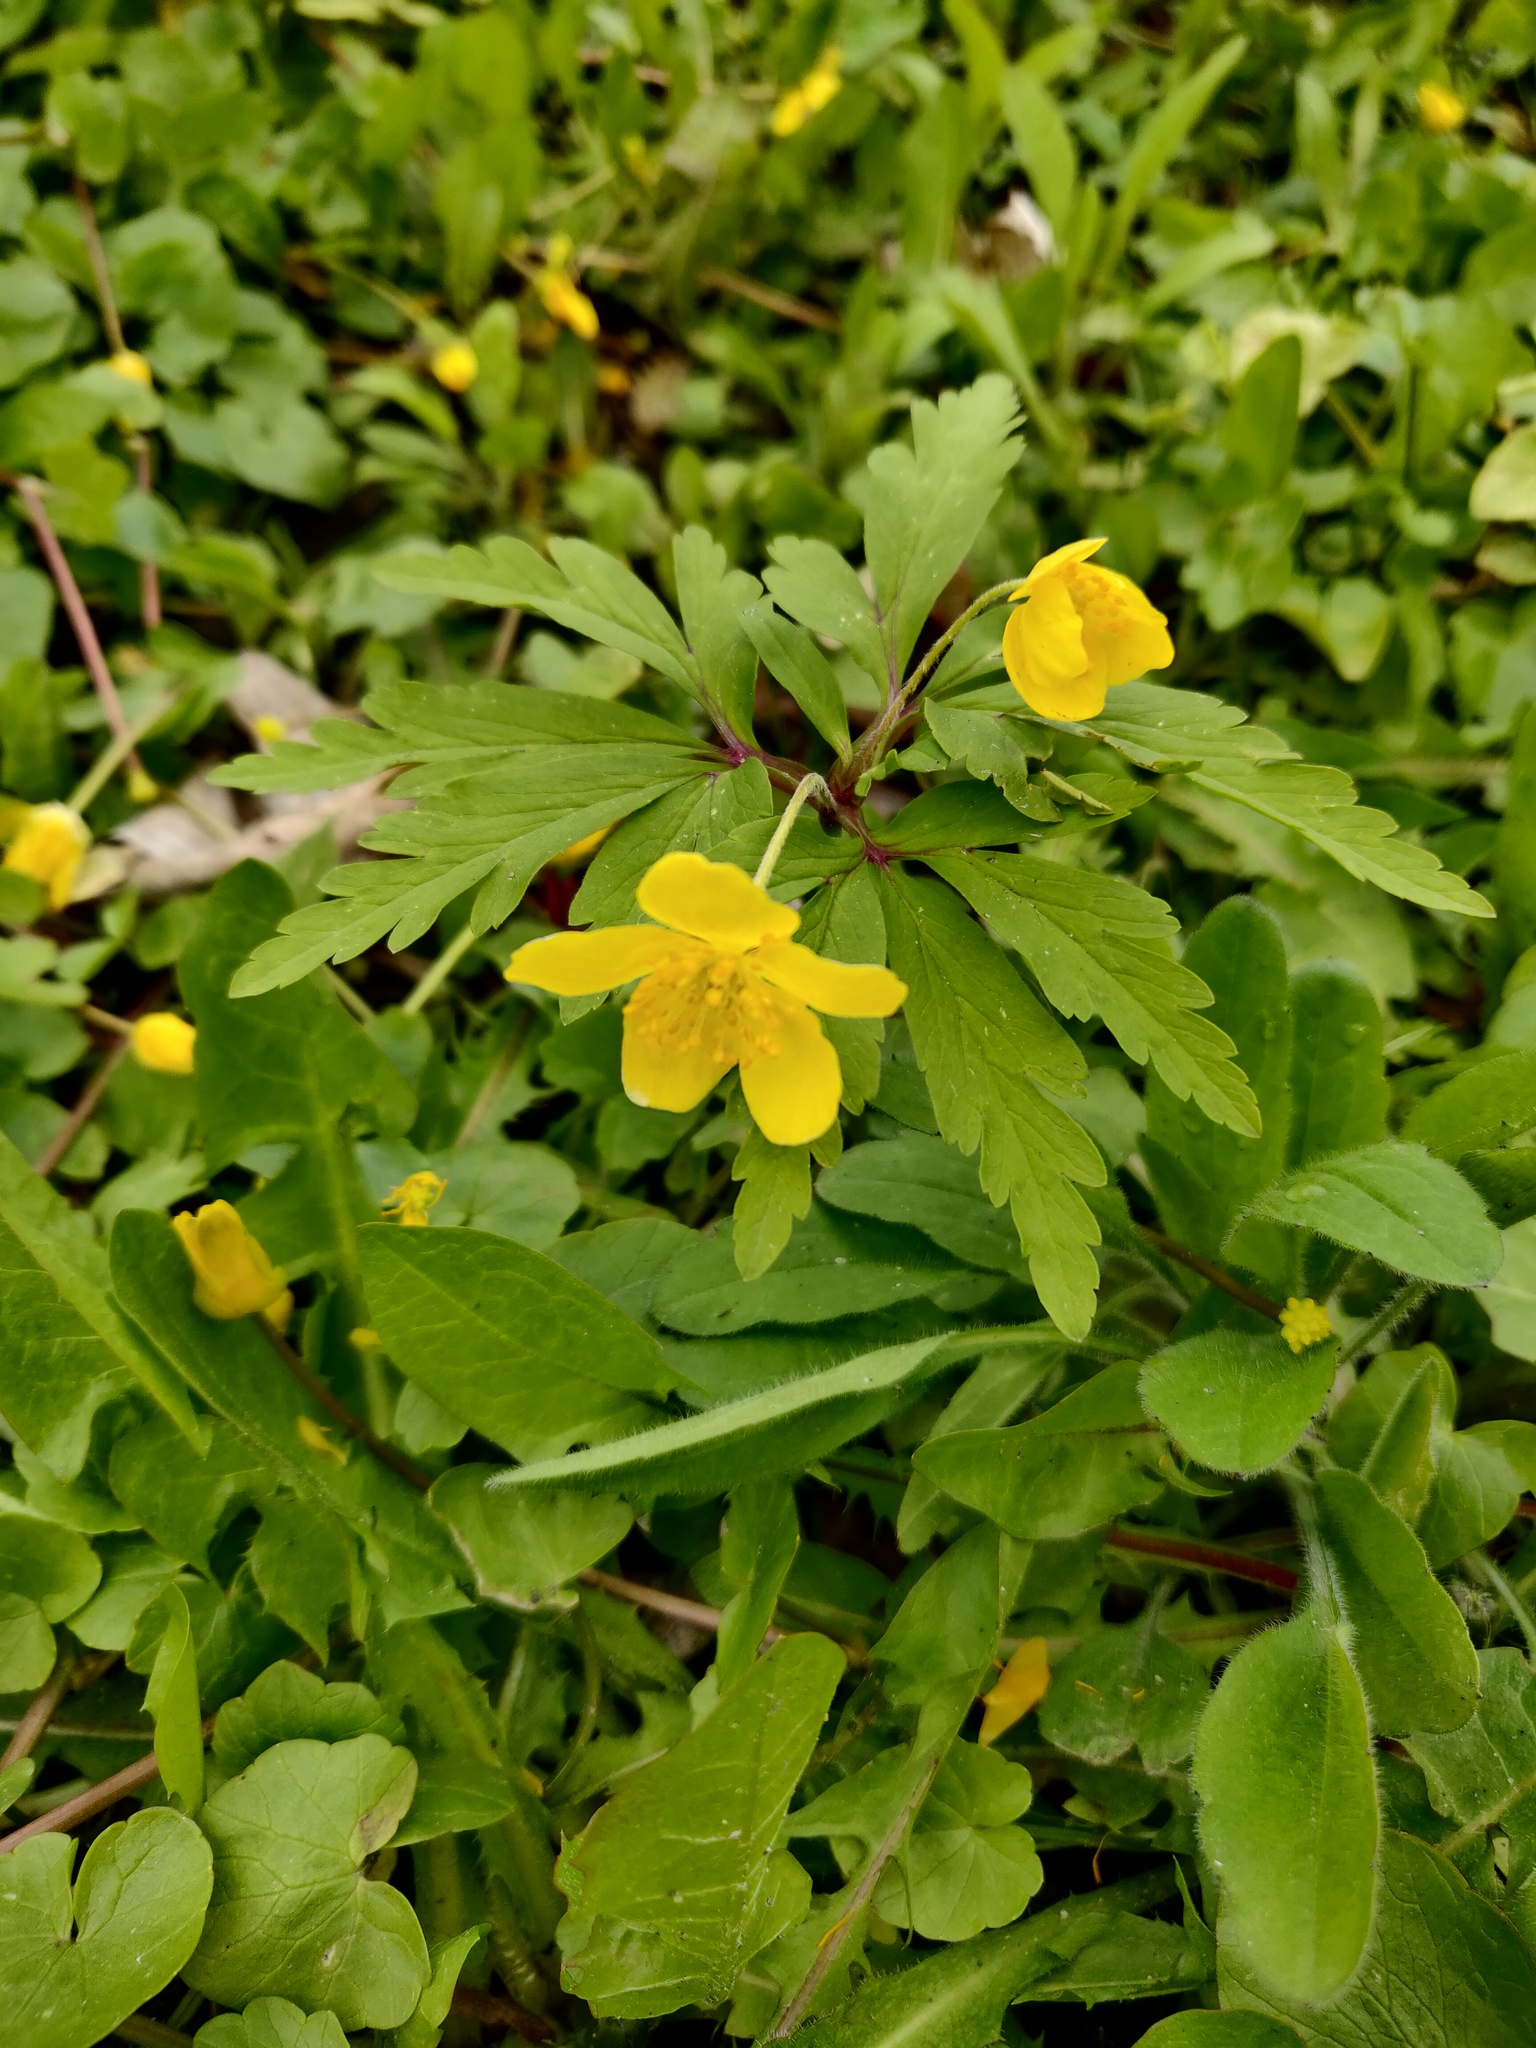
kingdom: Plantae
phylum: Tracheophyta
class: Magnoliopsida
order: Ranunculales
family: Ranunculaceae
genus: Anemone
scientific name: Anemone ranunculoides
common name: Yellow anemone
